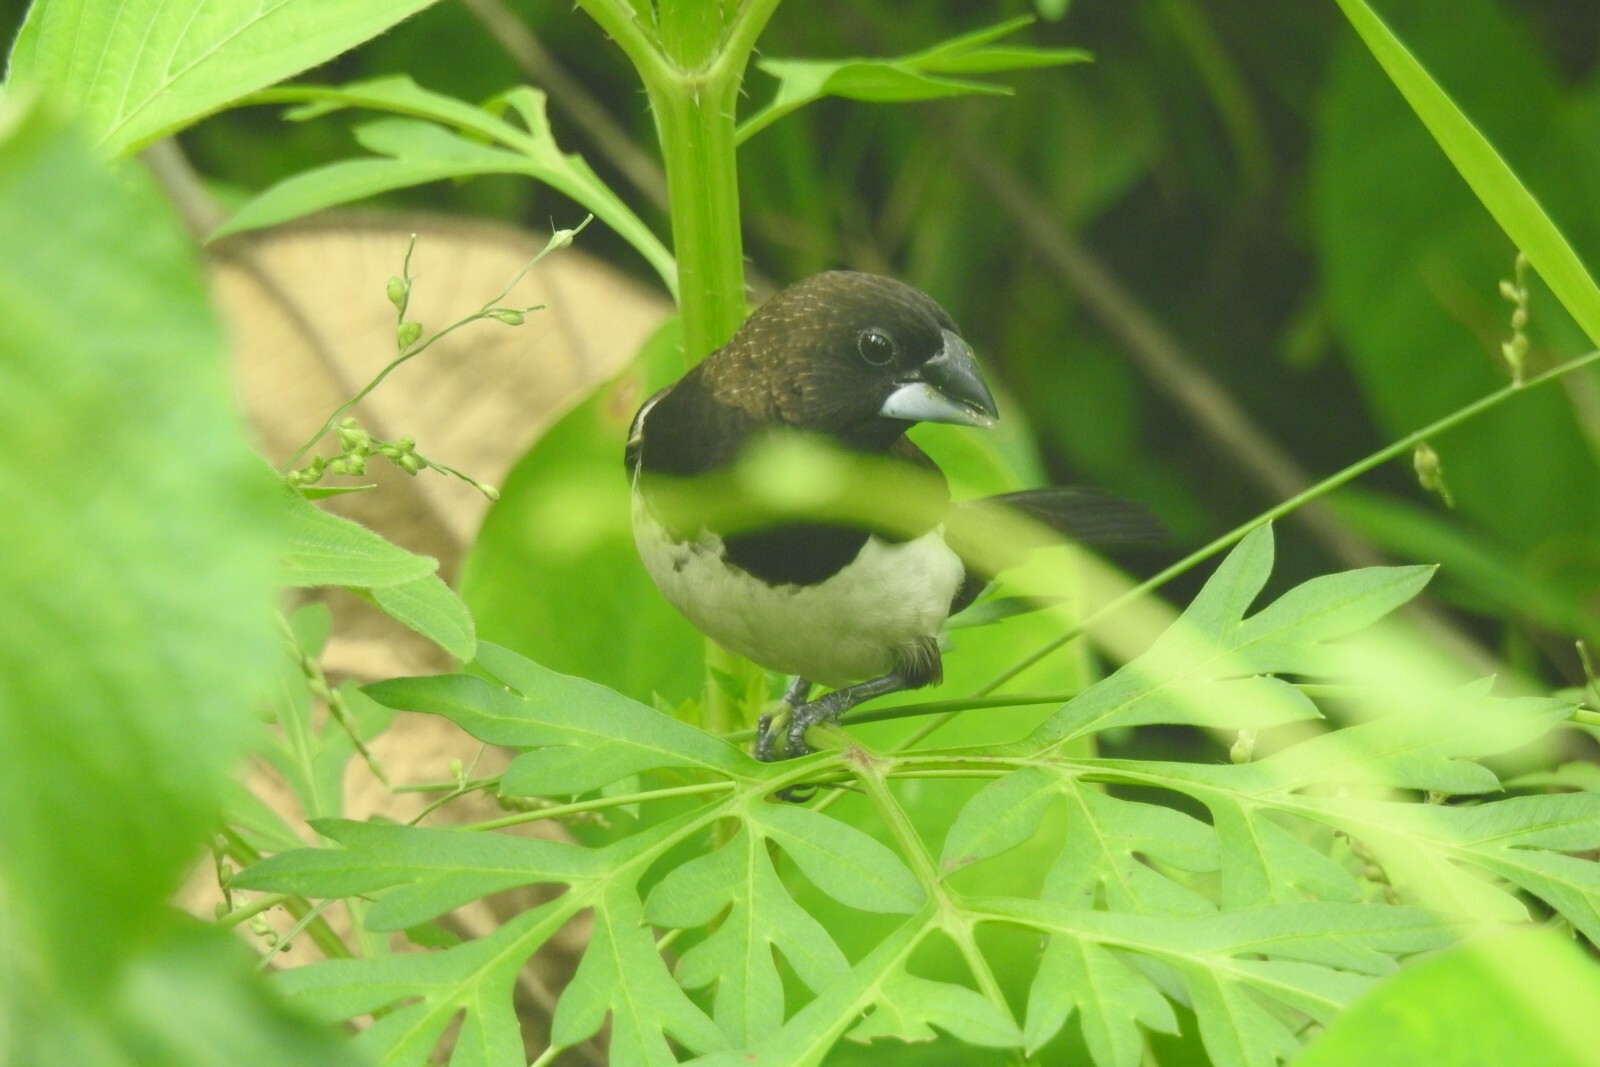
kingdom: Animalia
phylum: Chordata
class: Aves
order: Passeriformes
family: Estrildidae
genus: Lonchura
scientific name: Lonchura striata
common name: White-rumped munia
